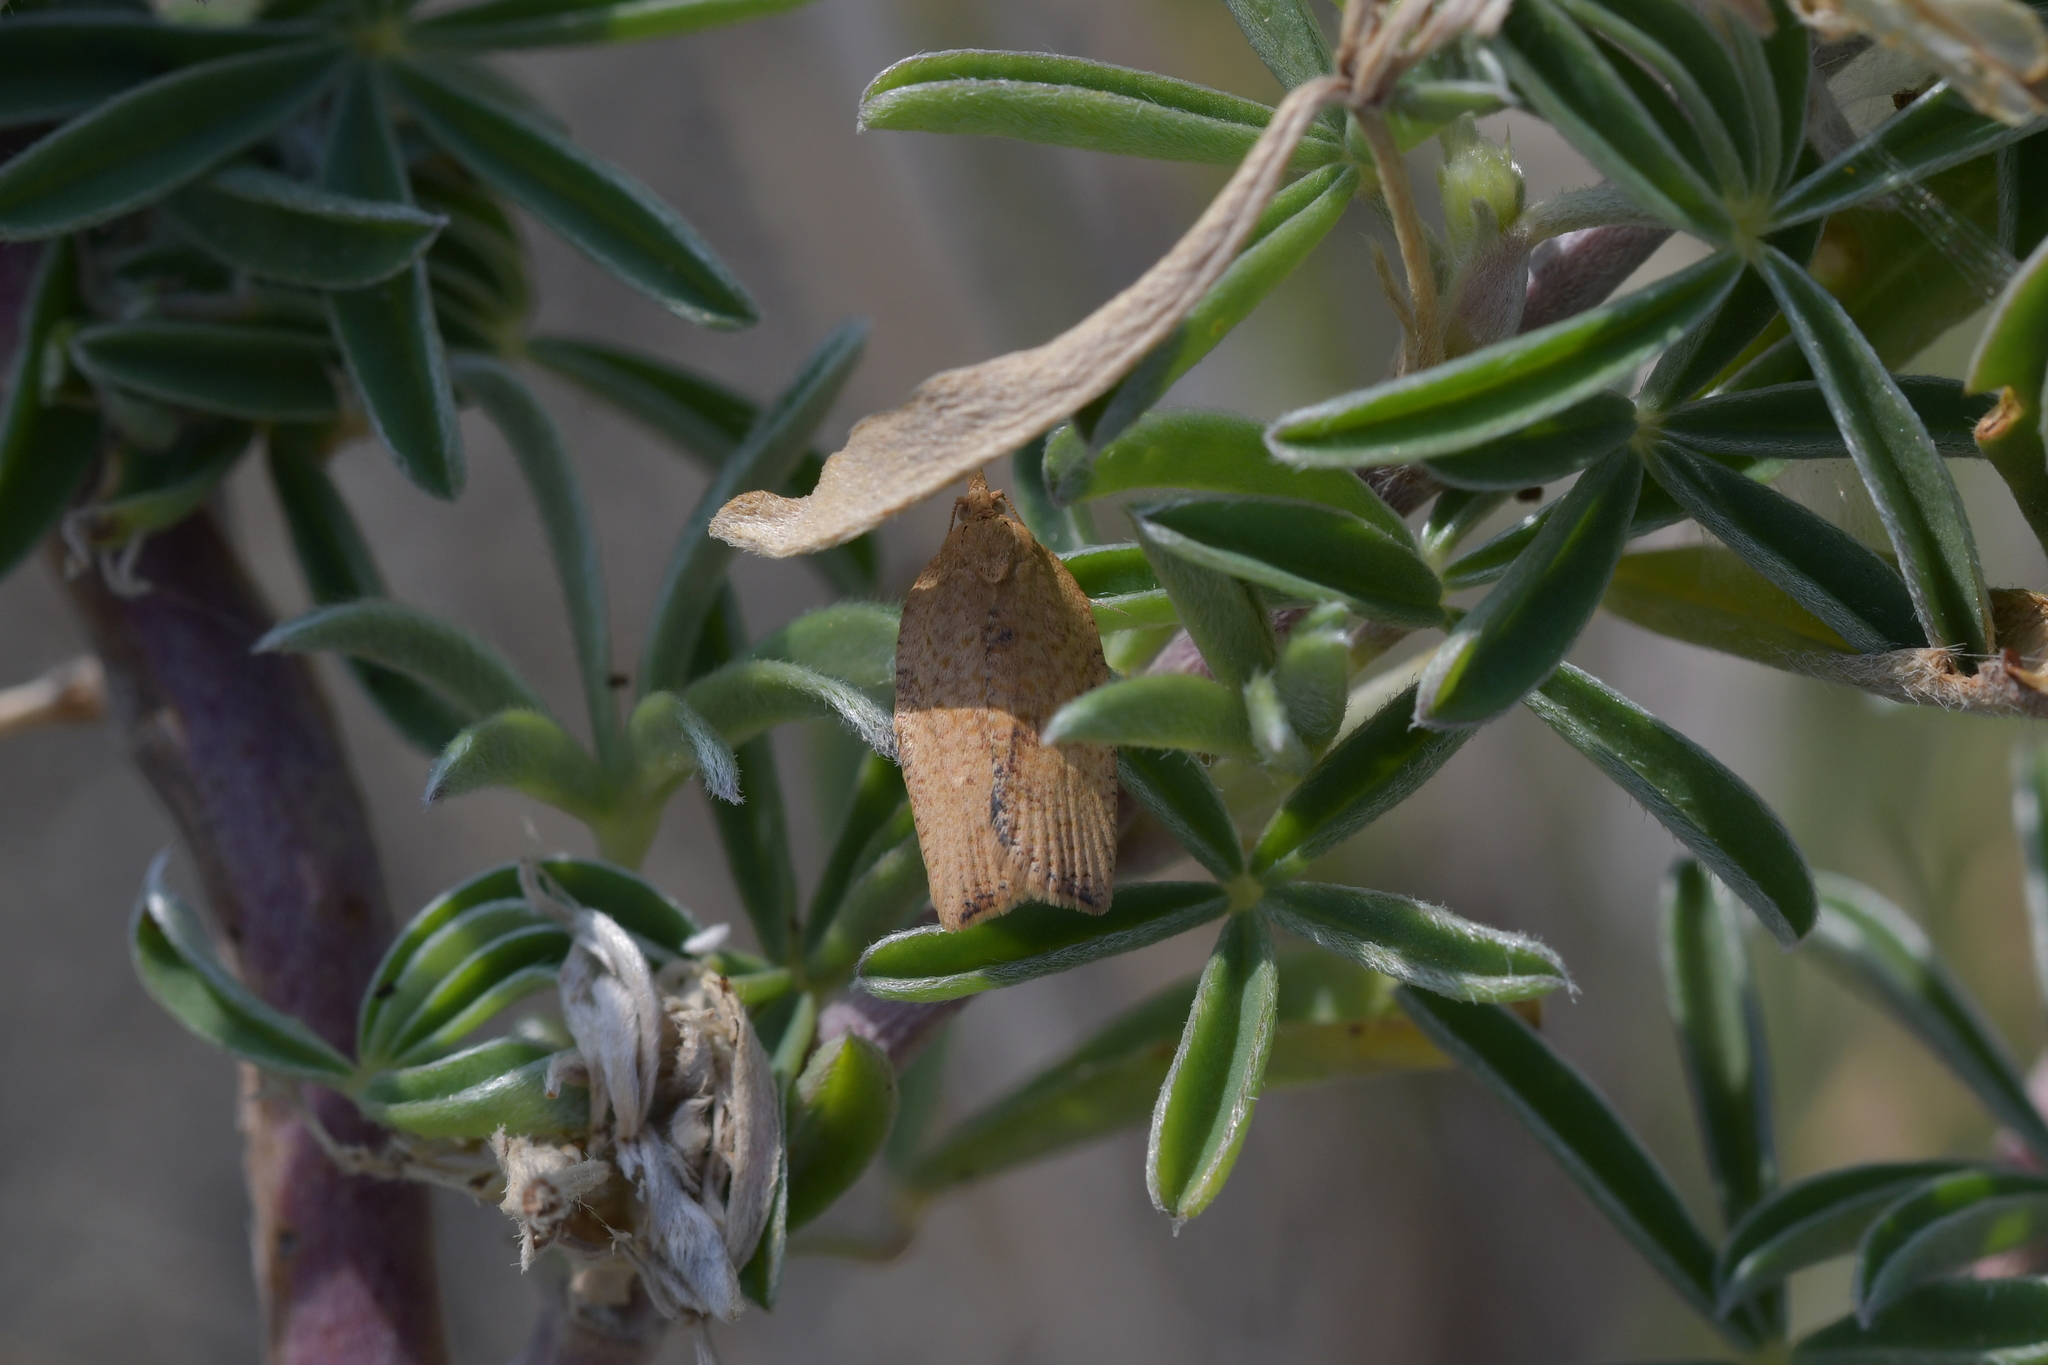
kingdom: Animalia
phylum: Arthropoda
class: Insecta
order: Lepidoptera
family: Tortricidae
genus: Epiphyas
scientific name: Epiphyas postvittana
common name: Light brown apple moth
